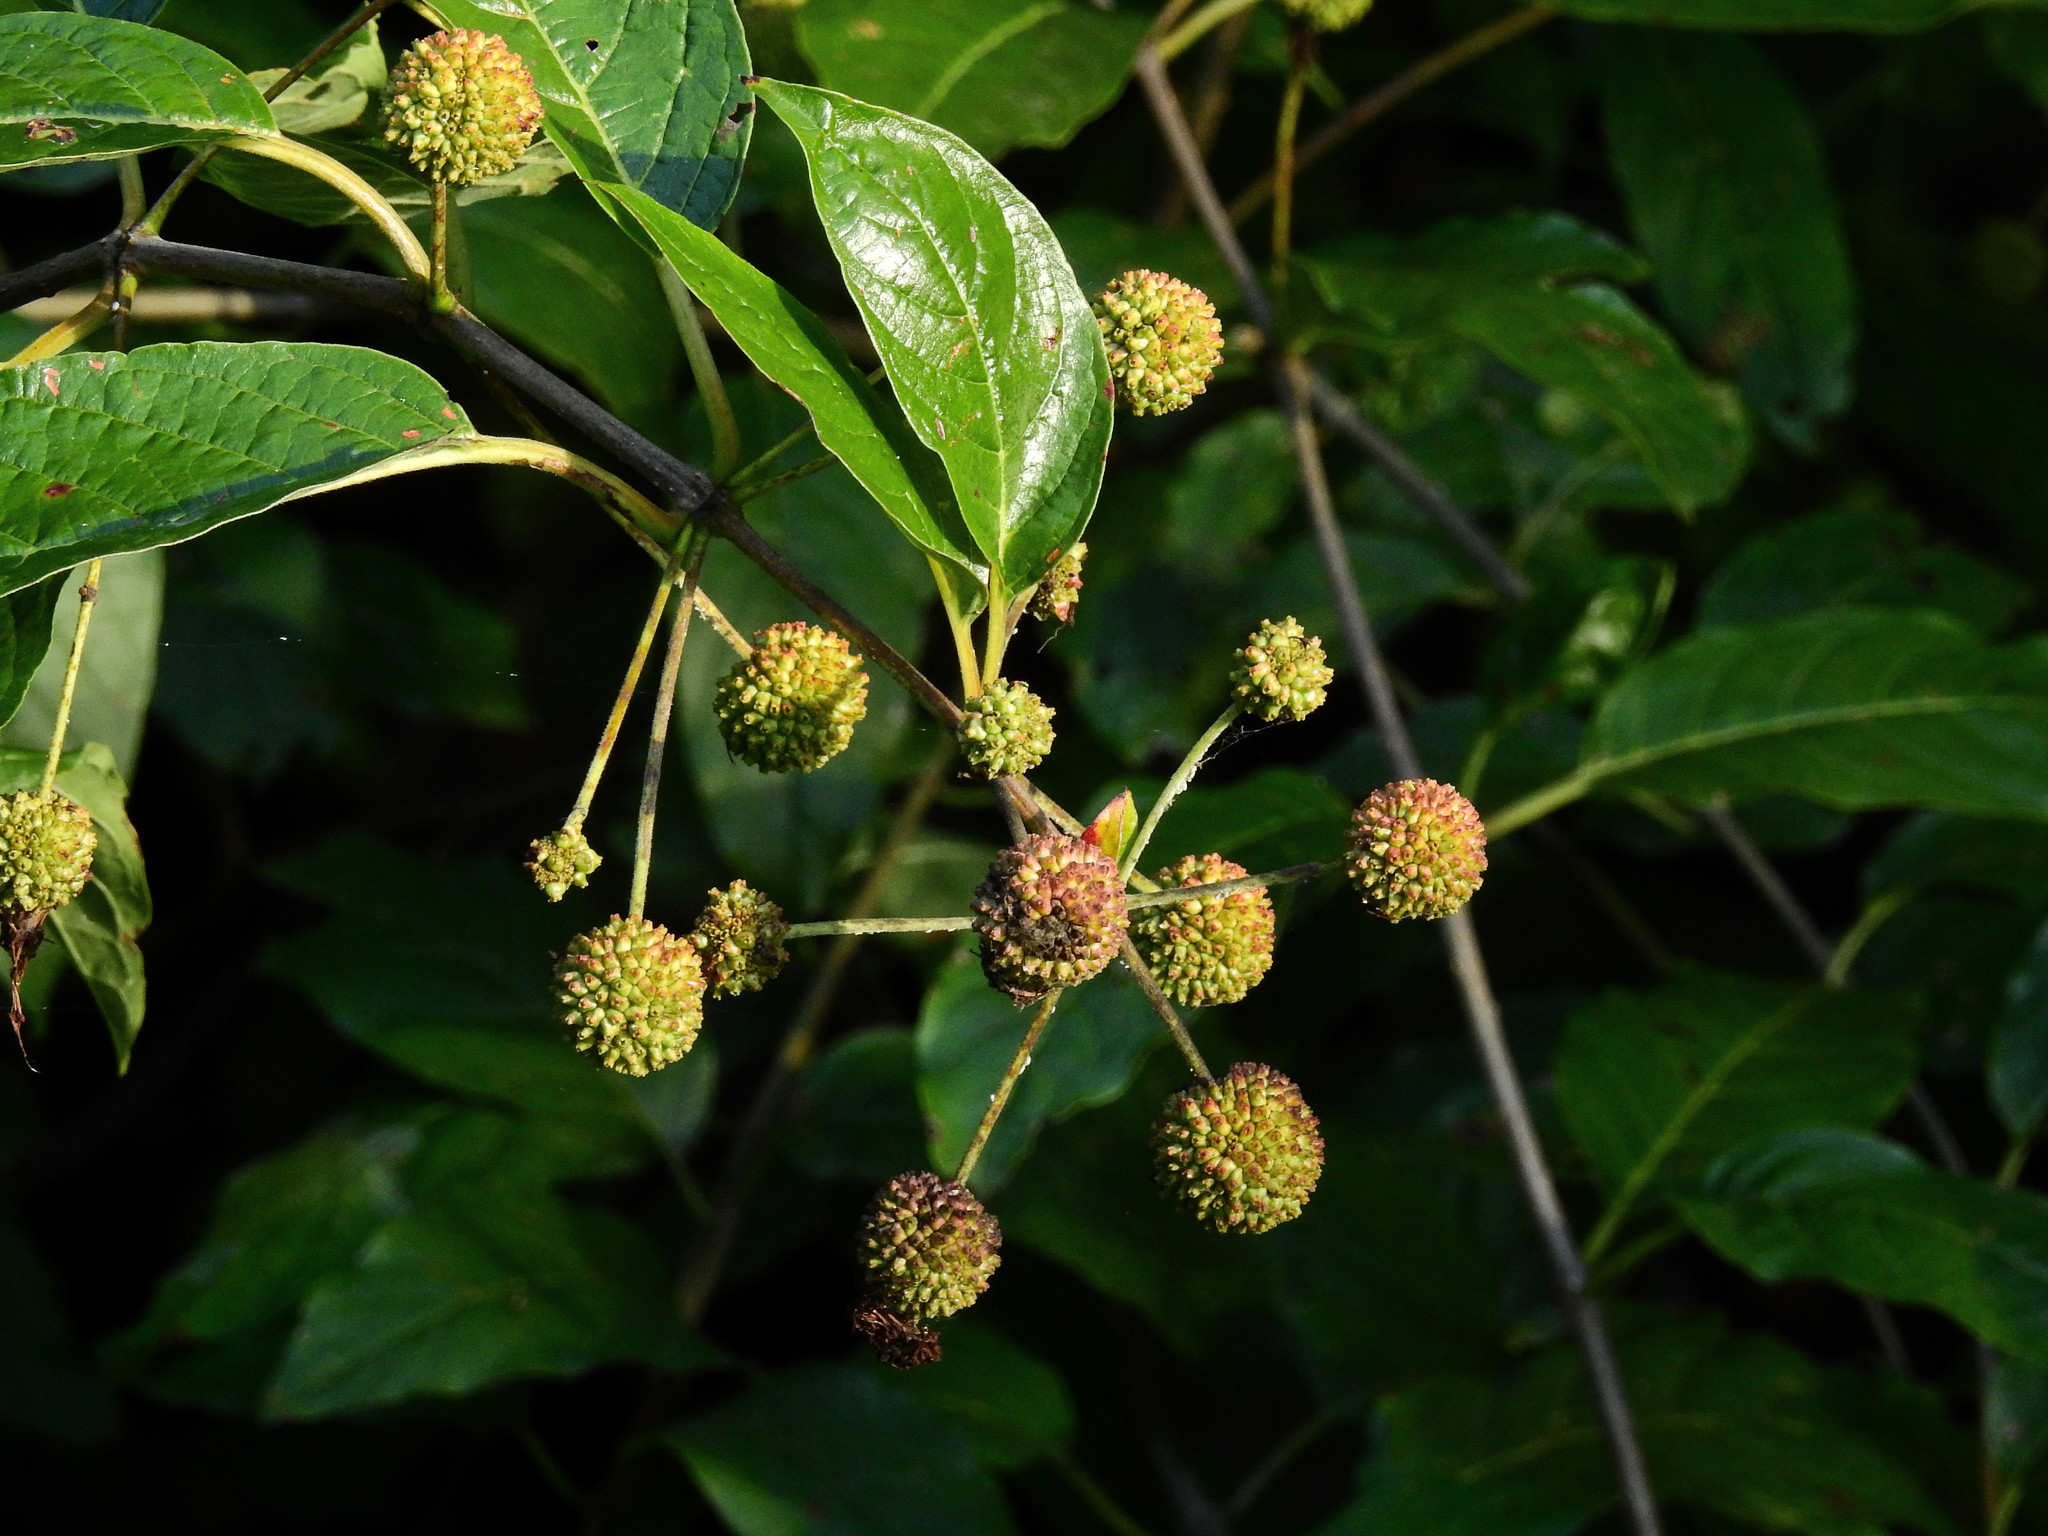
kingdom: Plantae
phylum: Tracheophyta
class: Magnoliopsida
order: Gentianales
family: Rubiaceae
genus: Cephalanthus
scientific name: Cephalanthus occidentalis
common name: Button-willow
